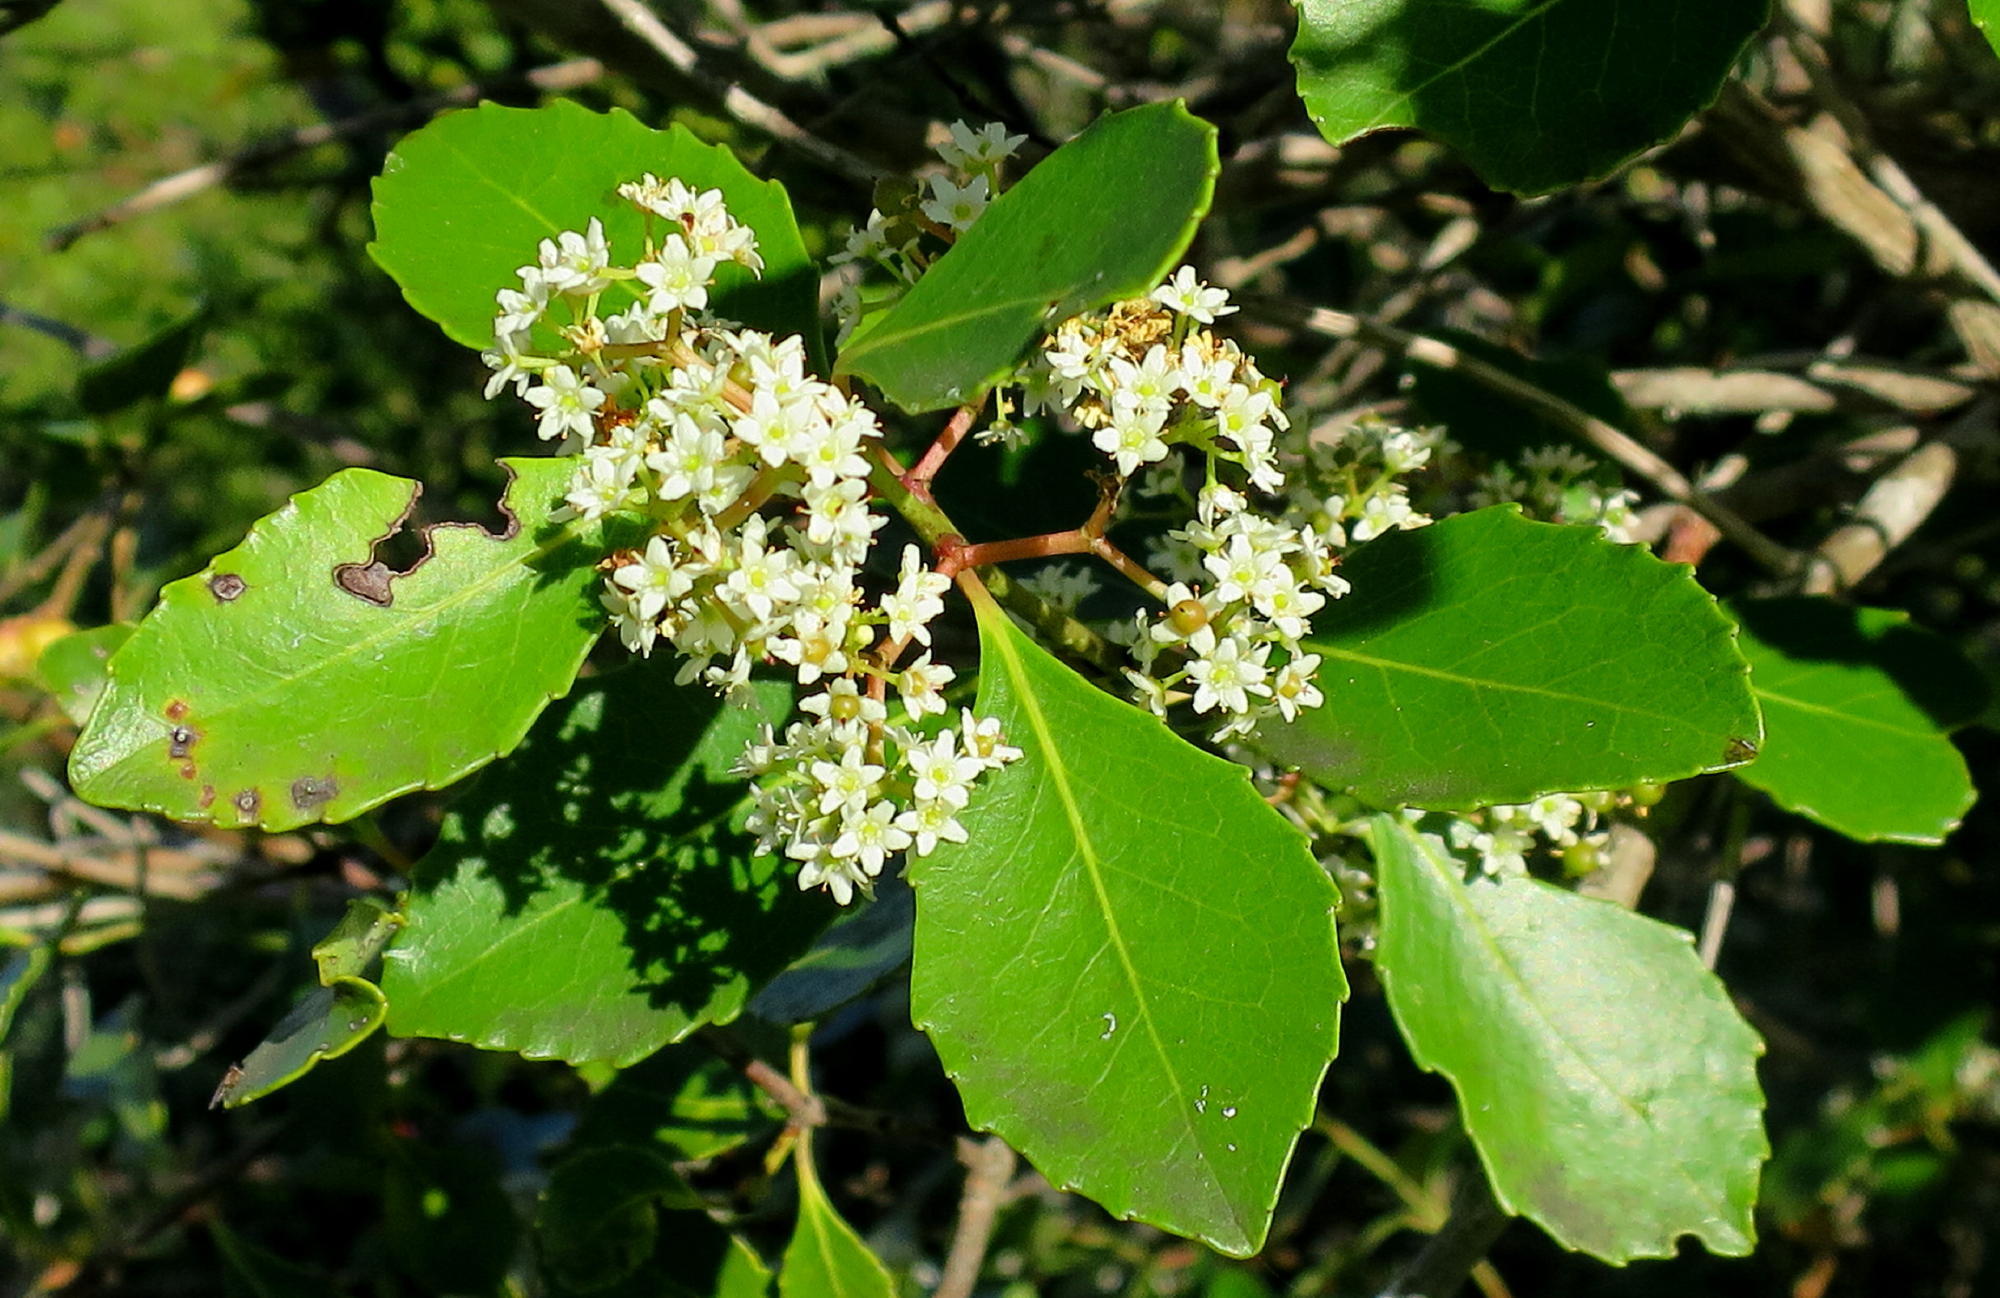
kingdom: Plantae
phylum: Tracheophyta
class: Magnoliopsida
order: Celastrales
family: Celastraceae
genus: Cassine
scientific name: Cassine peragua
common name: Cape saffron
